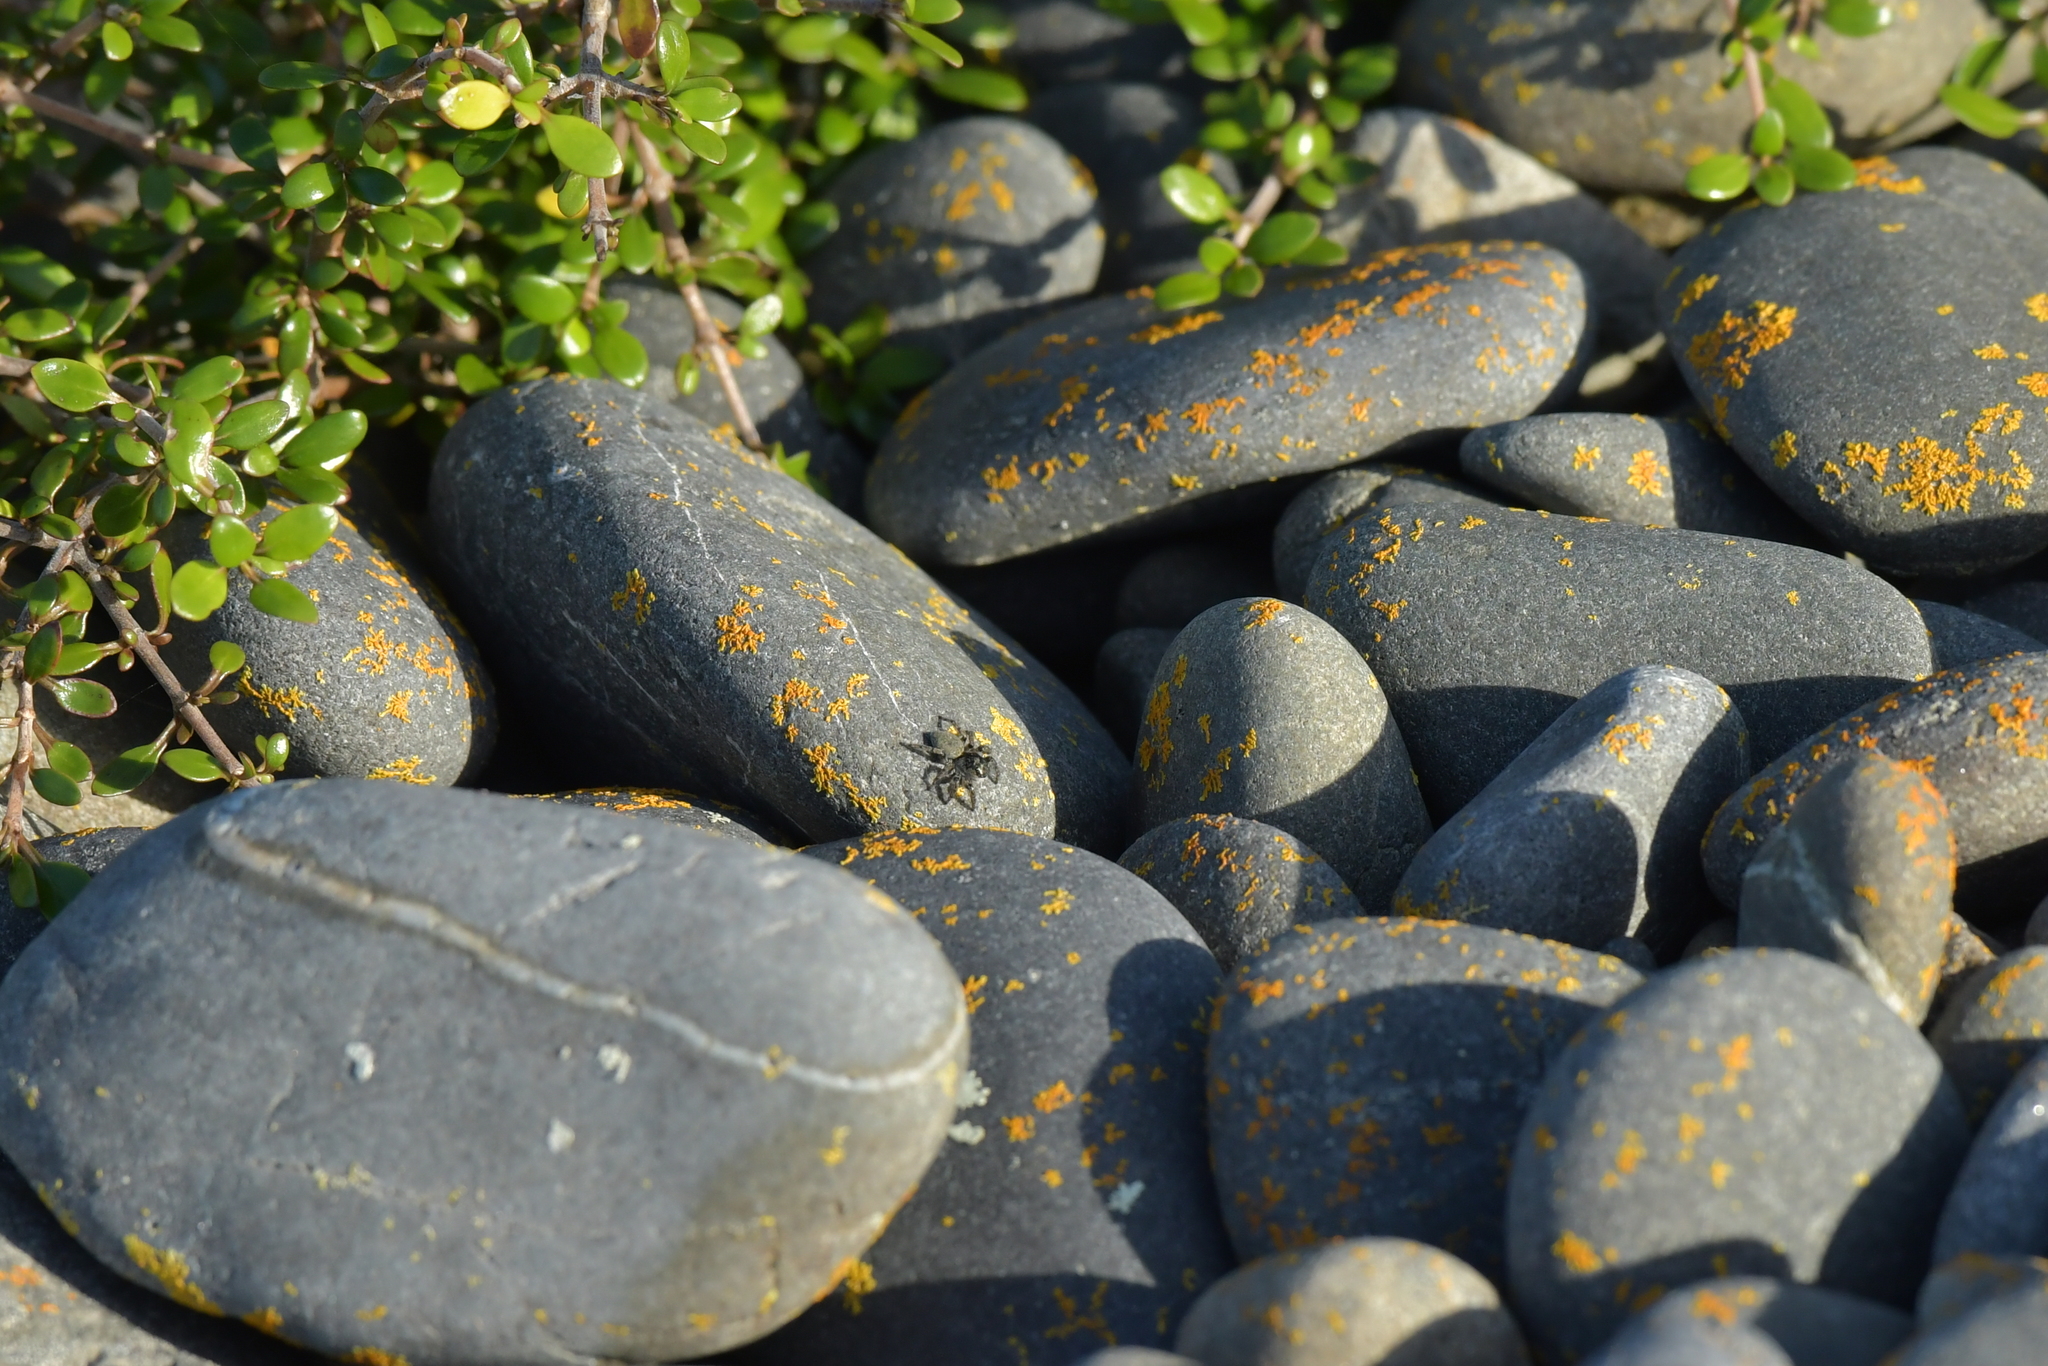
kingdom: Animalia
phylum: Arthropoda
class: Arachnida
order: Araneae
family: Salticidae
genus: Marpissa
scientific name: Marpissa marina
